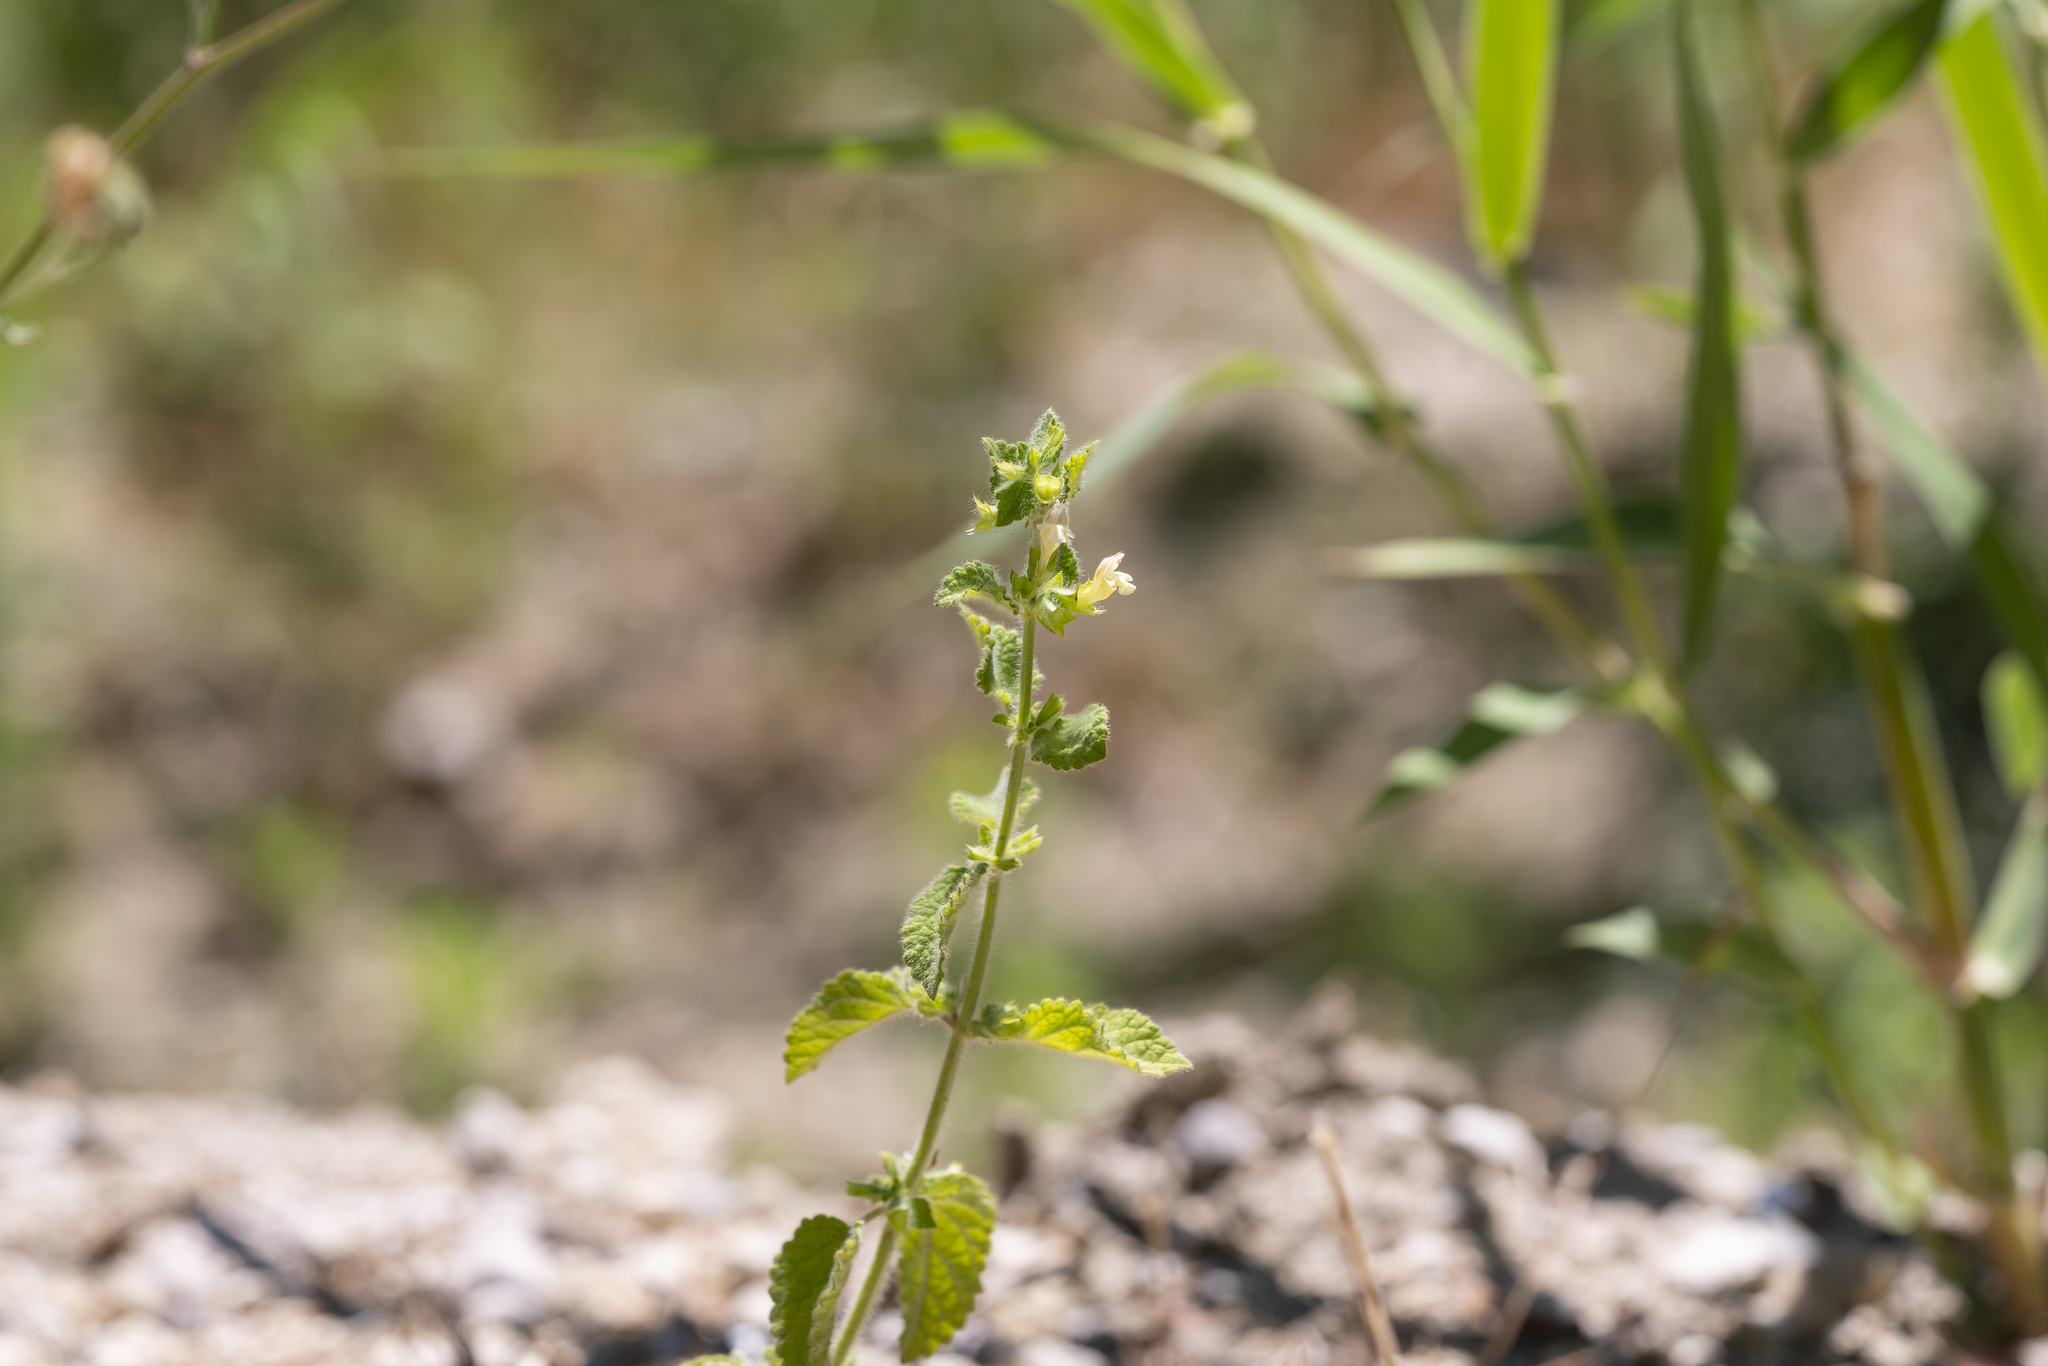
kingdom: Plantae
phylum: Tracheophyta
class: Magnoliopsida
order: Lamiales
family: Lamiaceae
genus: Melissa
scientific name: Melissa officinalis
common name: Balm
